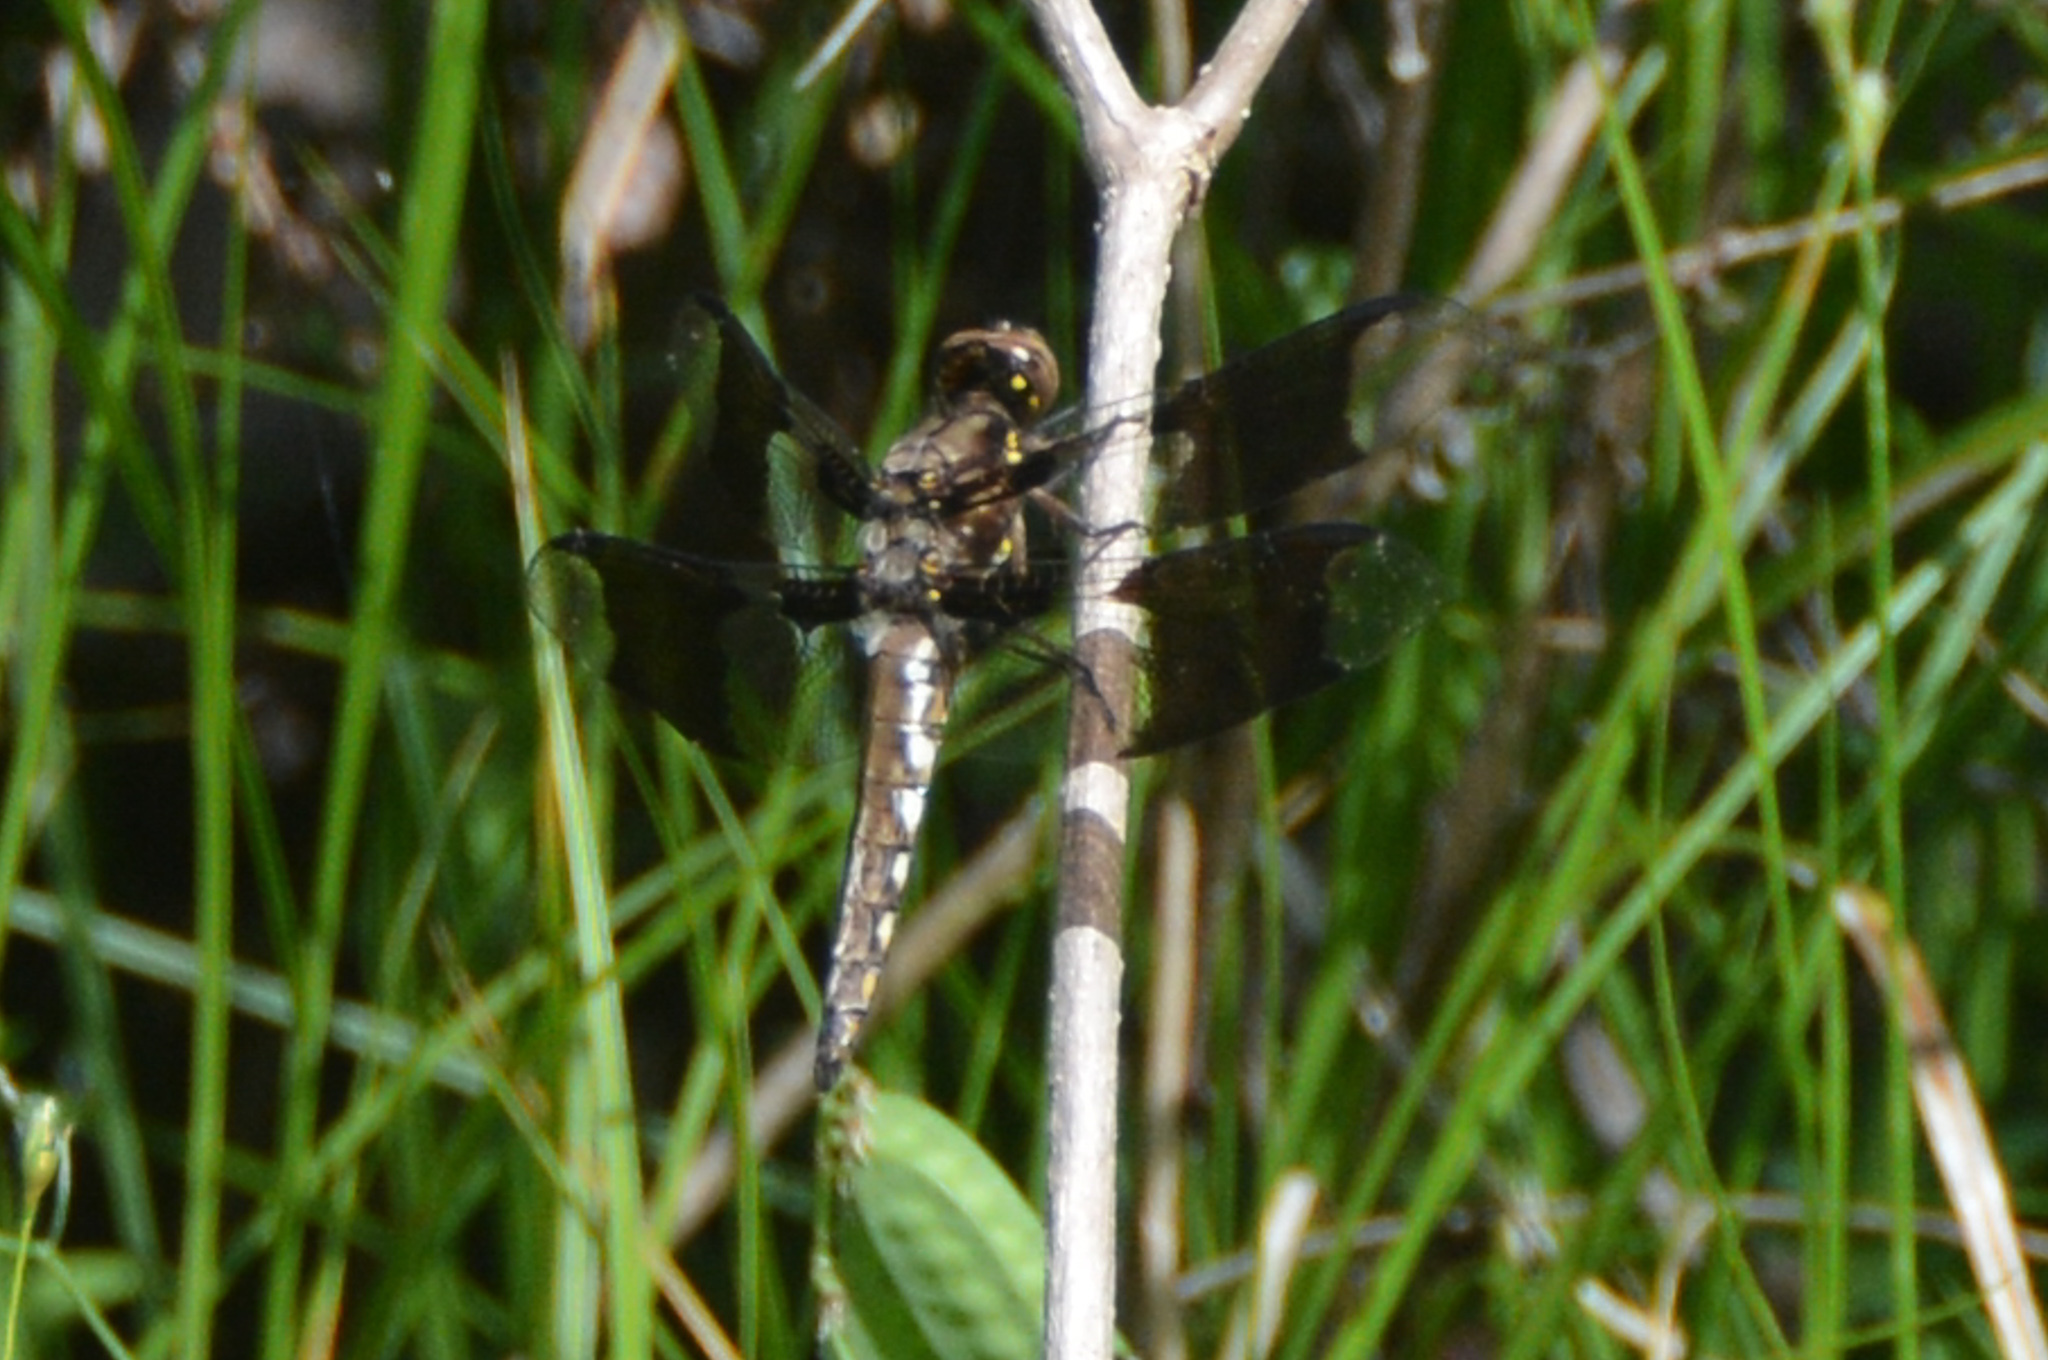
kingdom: Animalia
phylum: Arthropoda
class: Insecta
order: Odonata
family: Libellulidae
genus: Plathemis
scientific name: Plathemis lydia
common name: Common whitetail
